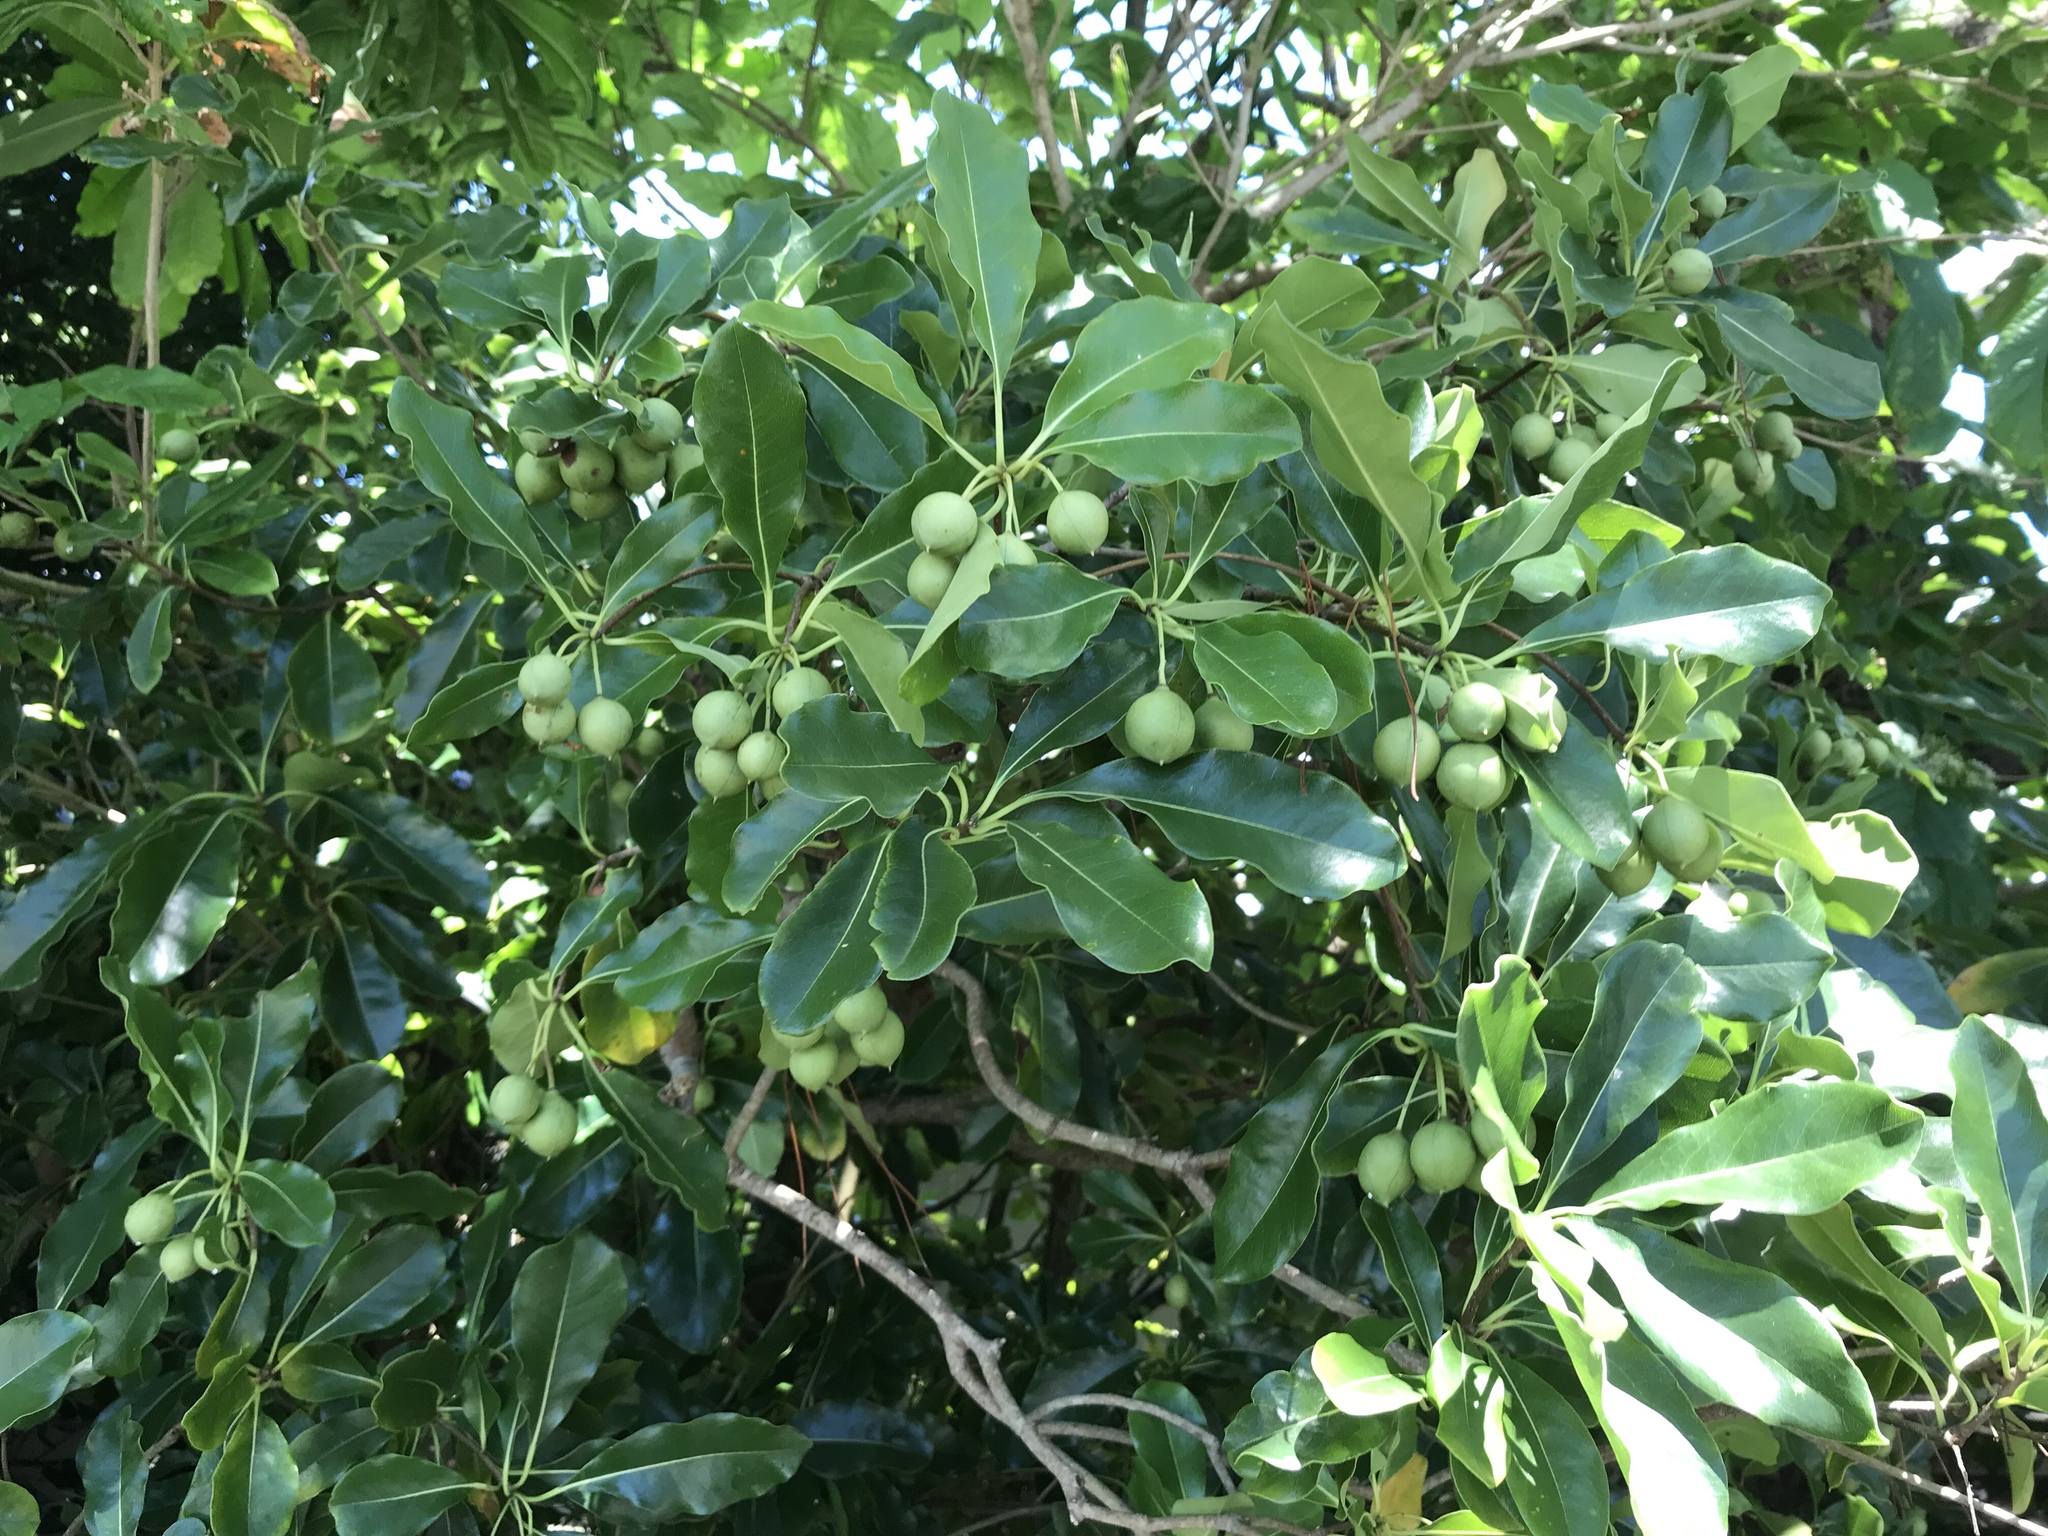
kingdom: Plantae
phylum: Tracheophyta
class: Magnoliopsida
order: Apiales
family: Pittosporaceae
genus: Pittosporum
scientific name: Pittosporum tobira
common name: Japanese cheesewood
